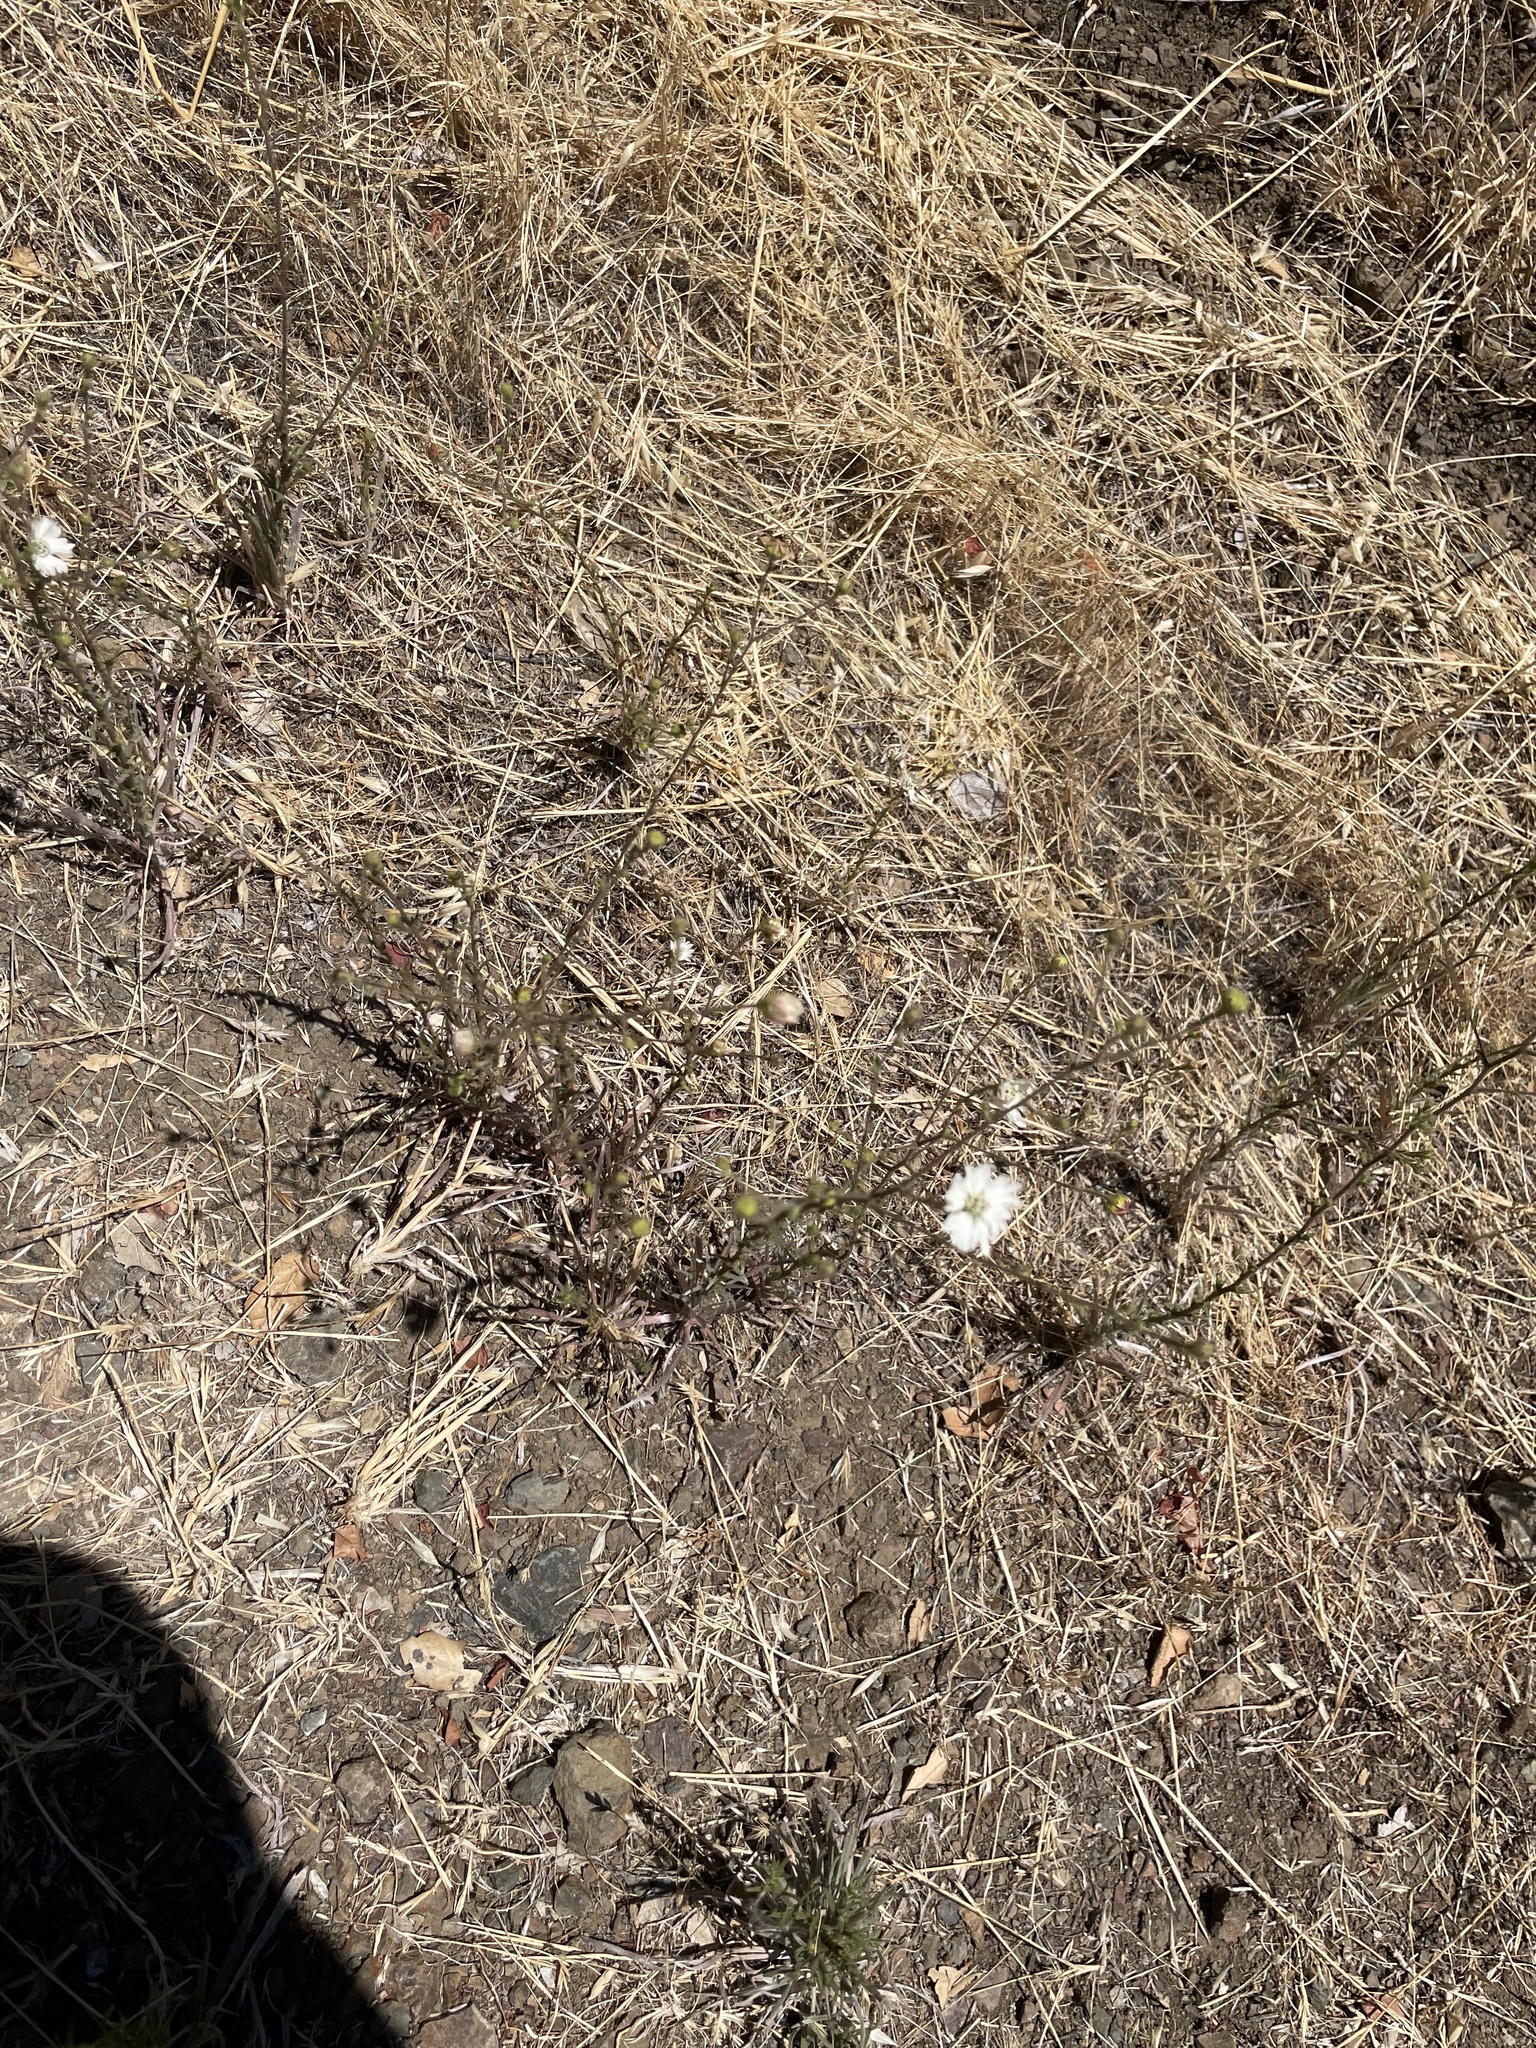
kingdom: Plantae
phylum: Tracheophyta
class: Magnoliopsida
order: Asterales
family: Asteraceae
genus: Hemizonia
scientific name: Hemizonia congesta
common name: Hayfield tarweed
